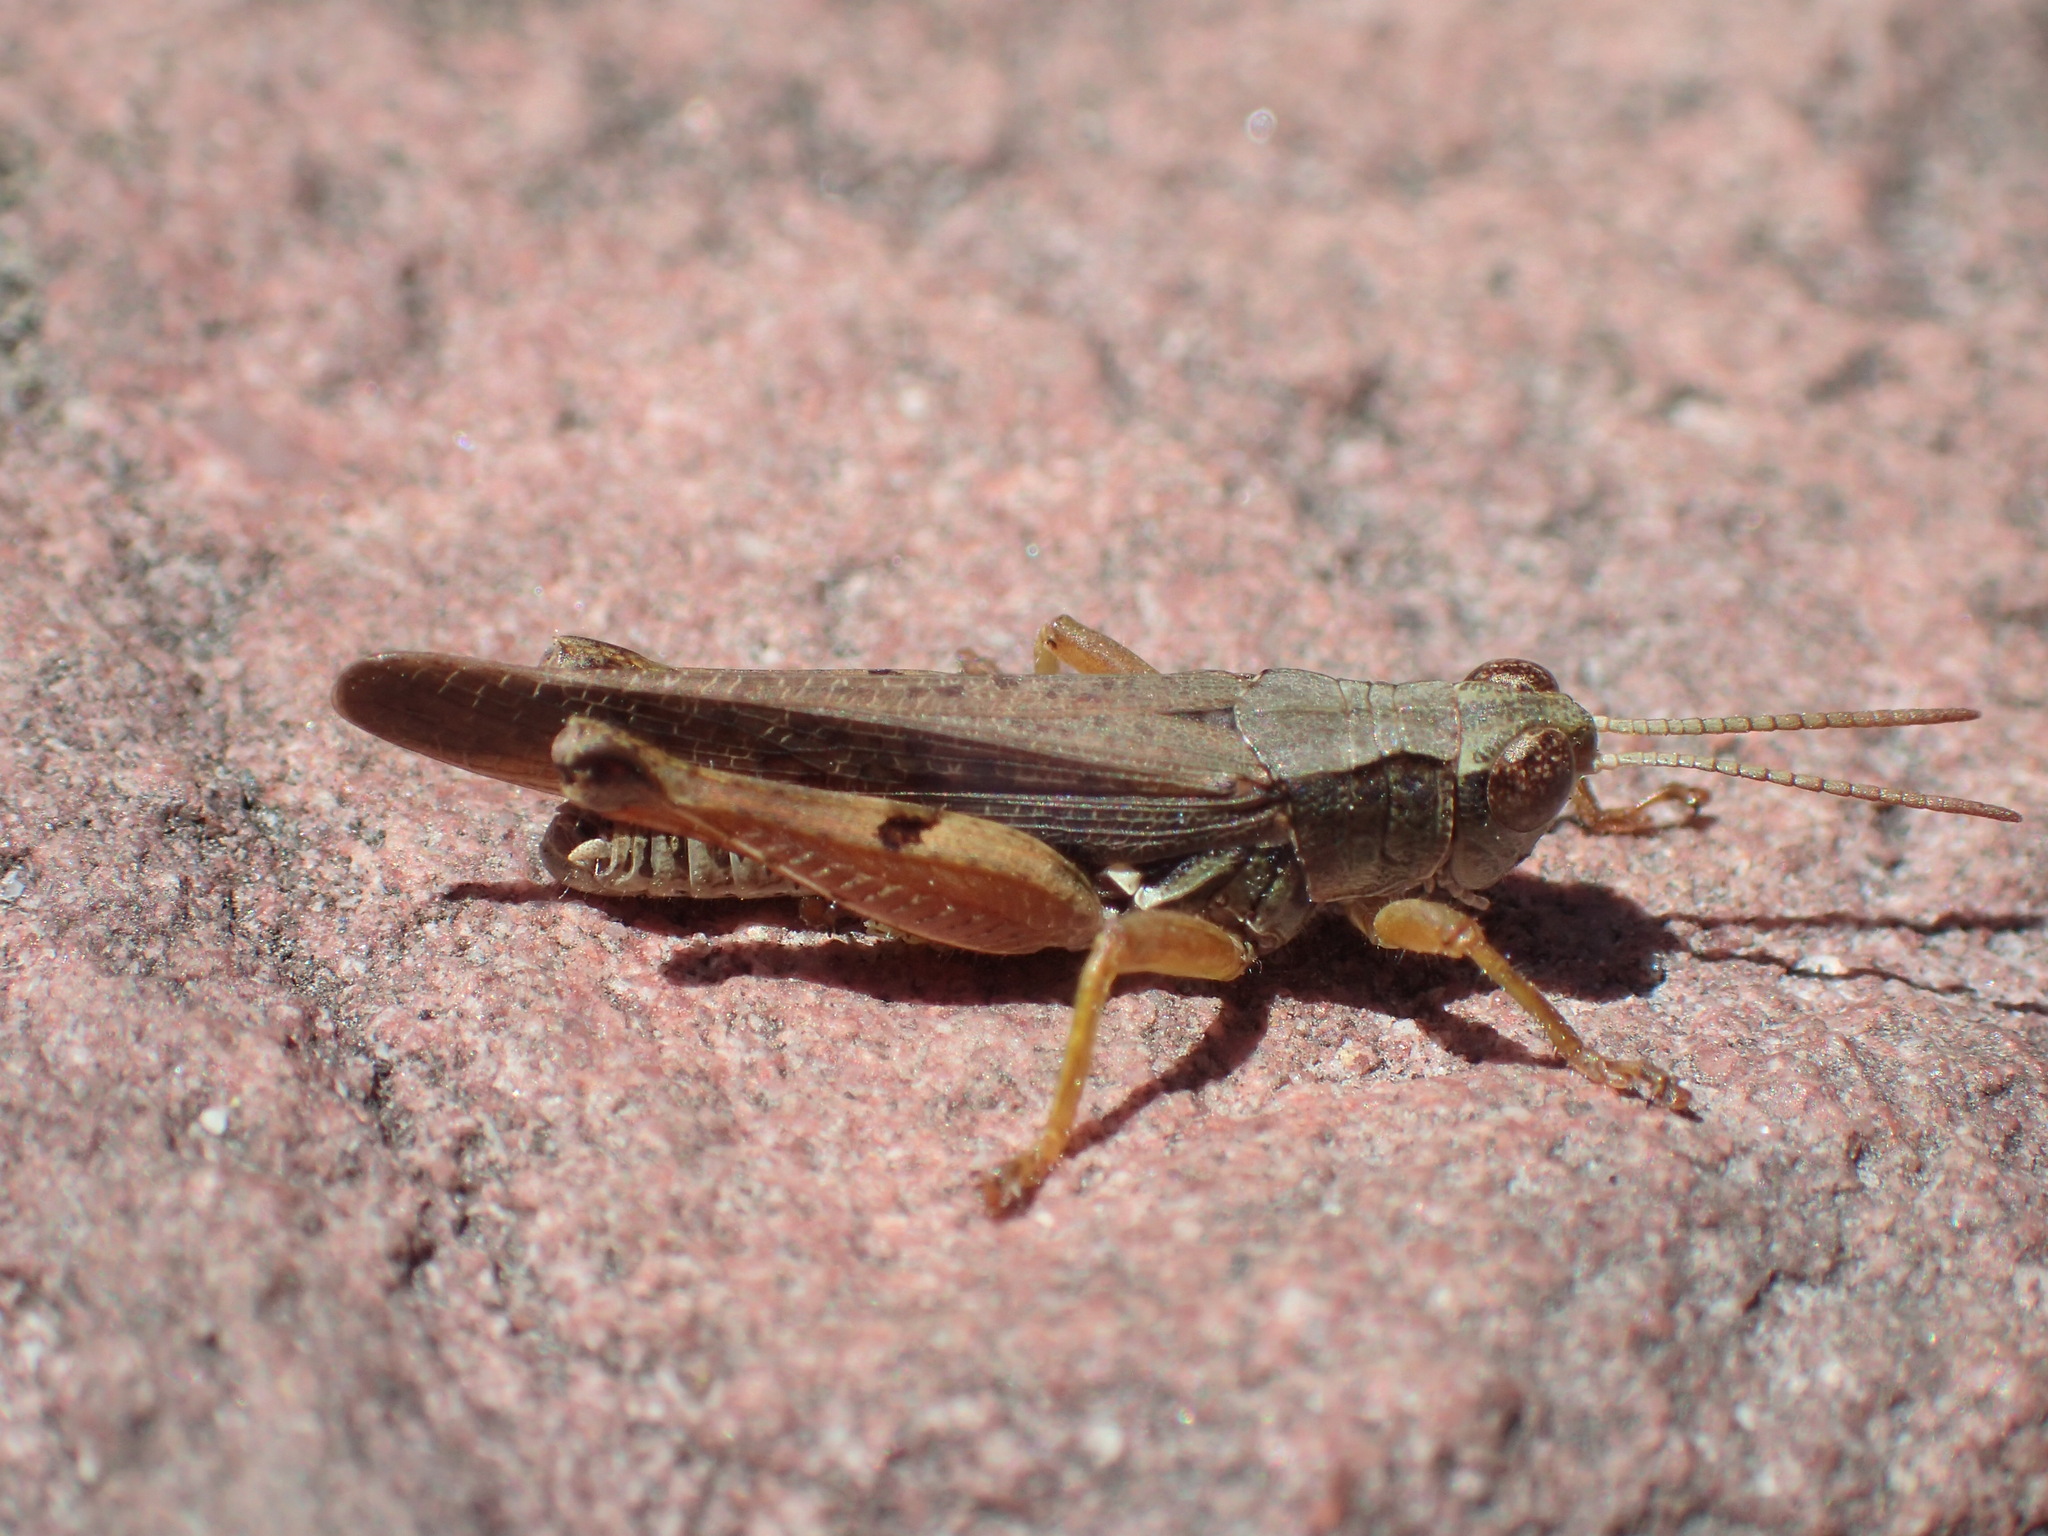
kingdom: Animalia
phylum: Arthropoda
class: Insecta
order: Orthoptera
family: Acrididae
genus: Phaulacridium
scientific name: Phaulacridium vittatum
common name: Wingless grasshopper
